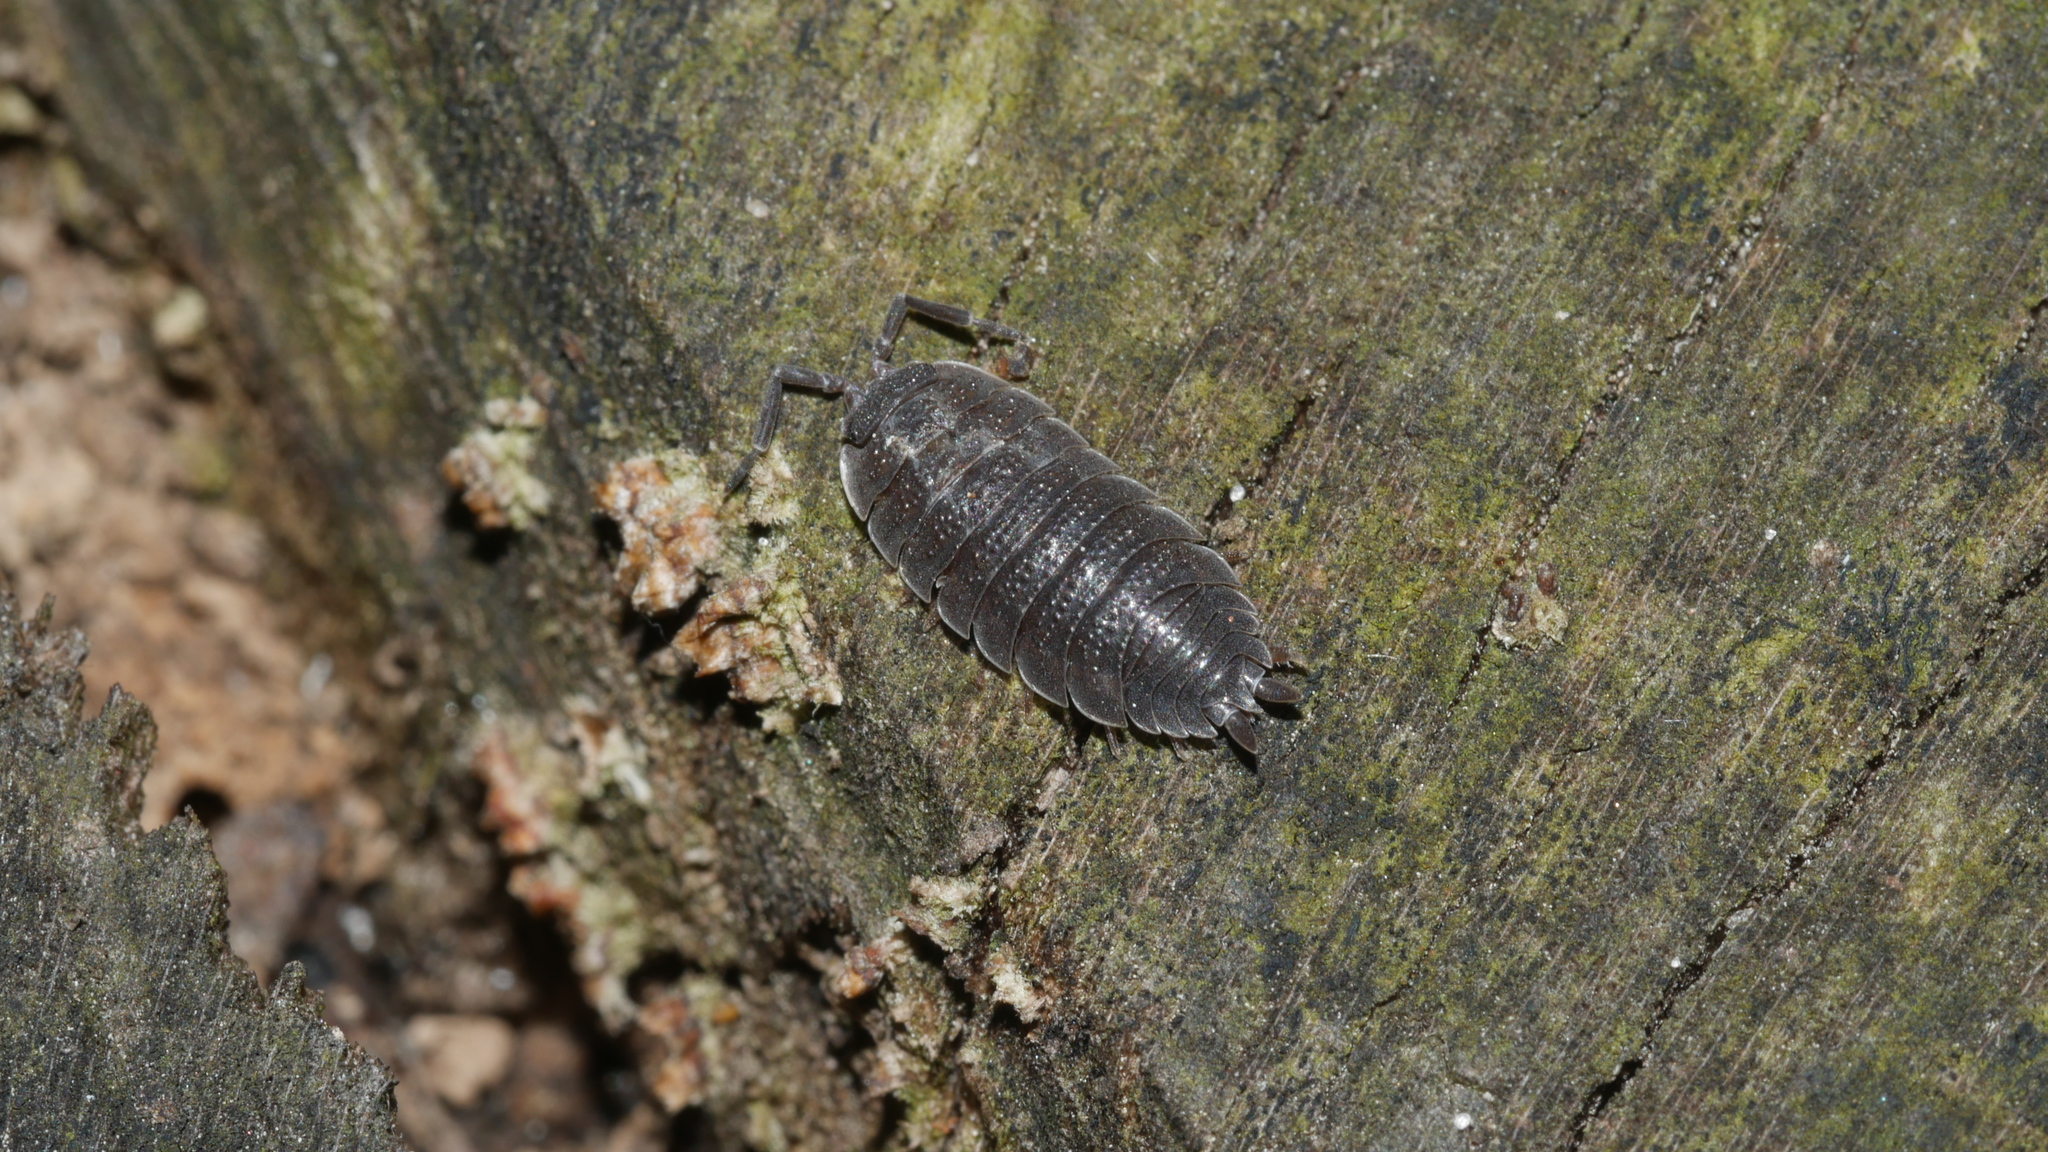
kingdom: Animalia
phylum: Arthropoda
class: Malacostraca
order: Isopoda
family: Porcellionidae
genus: Porcellio
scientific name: Porcellio scaber
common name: Common rough woodlouse
